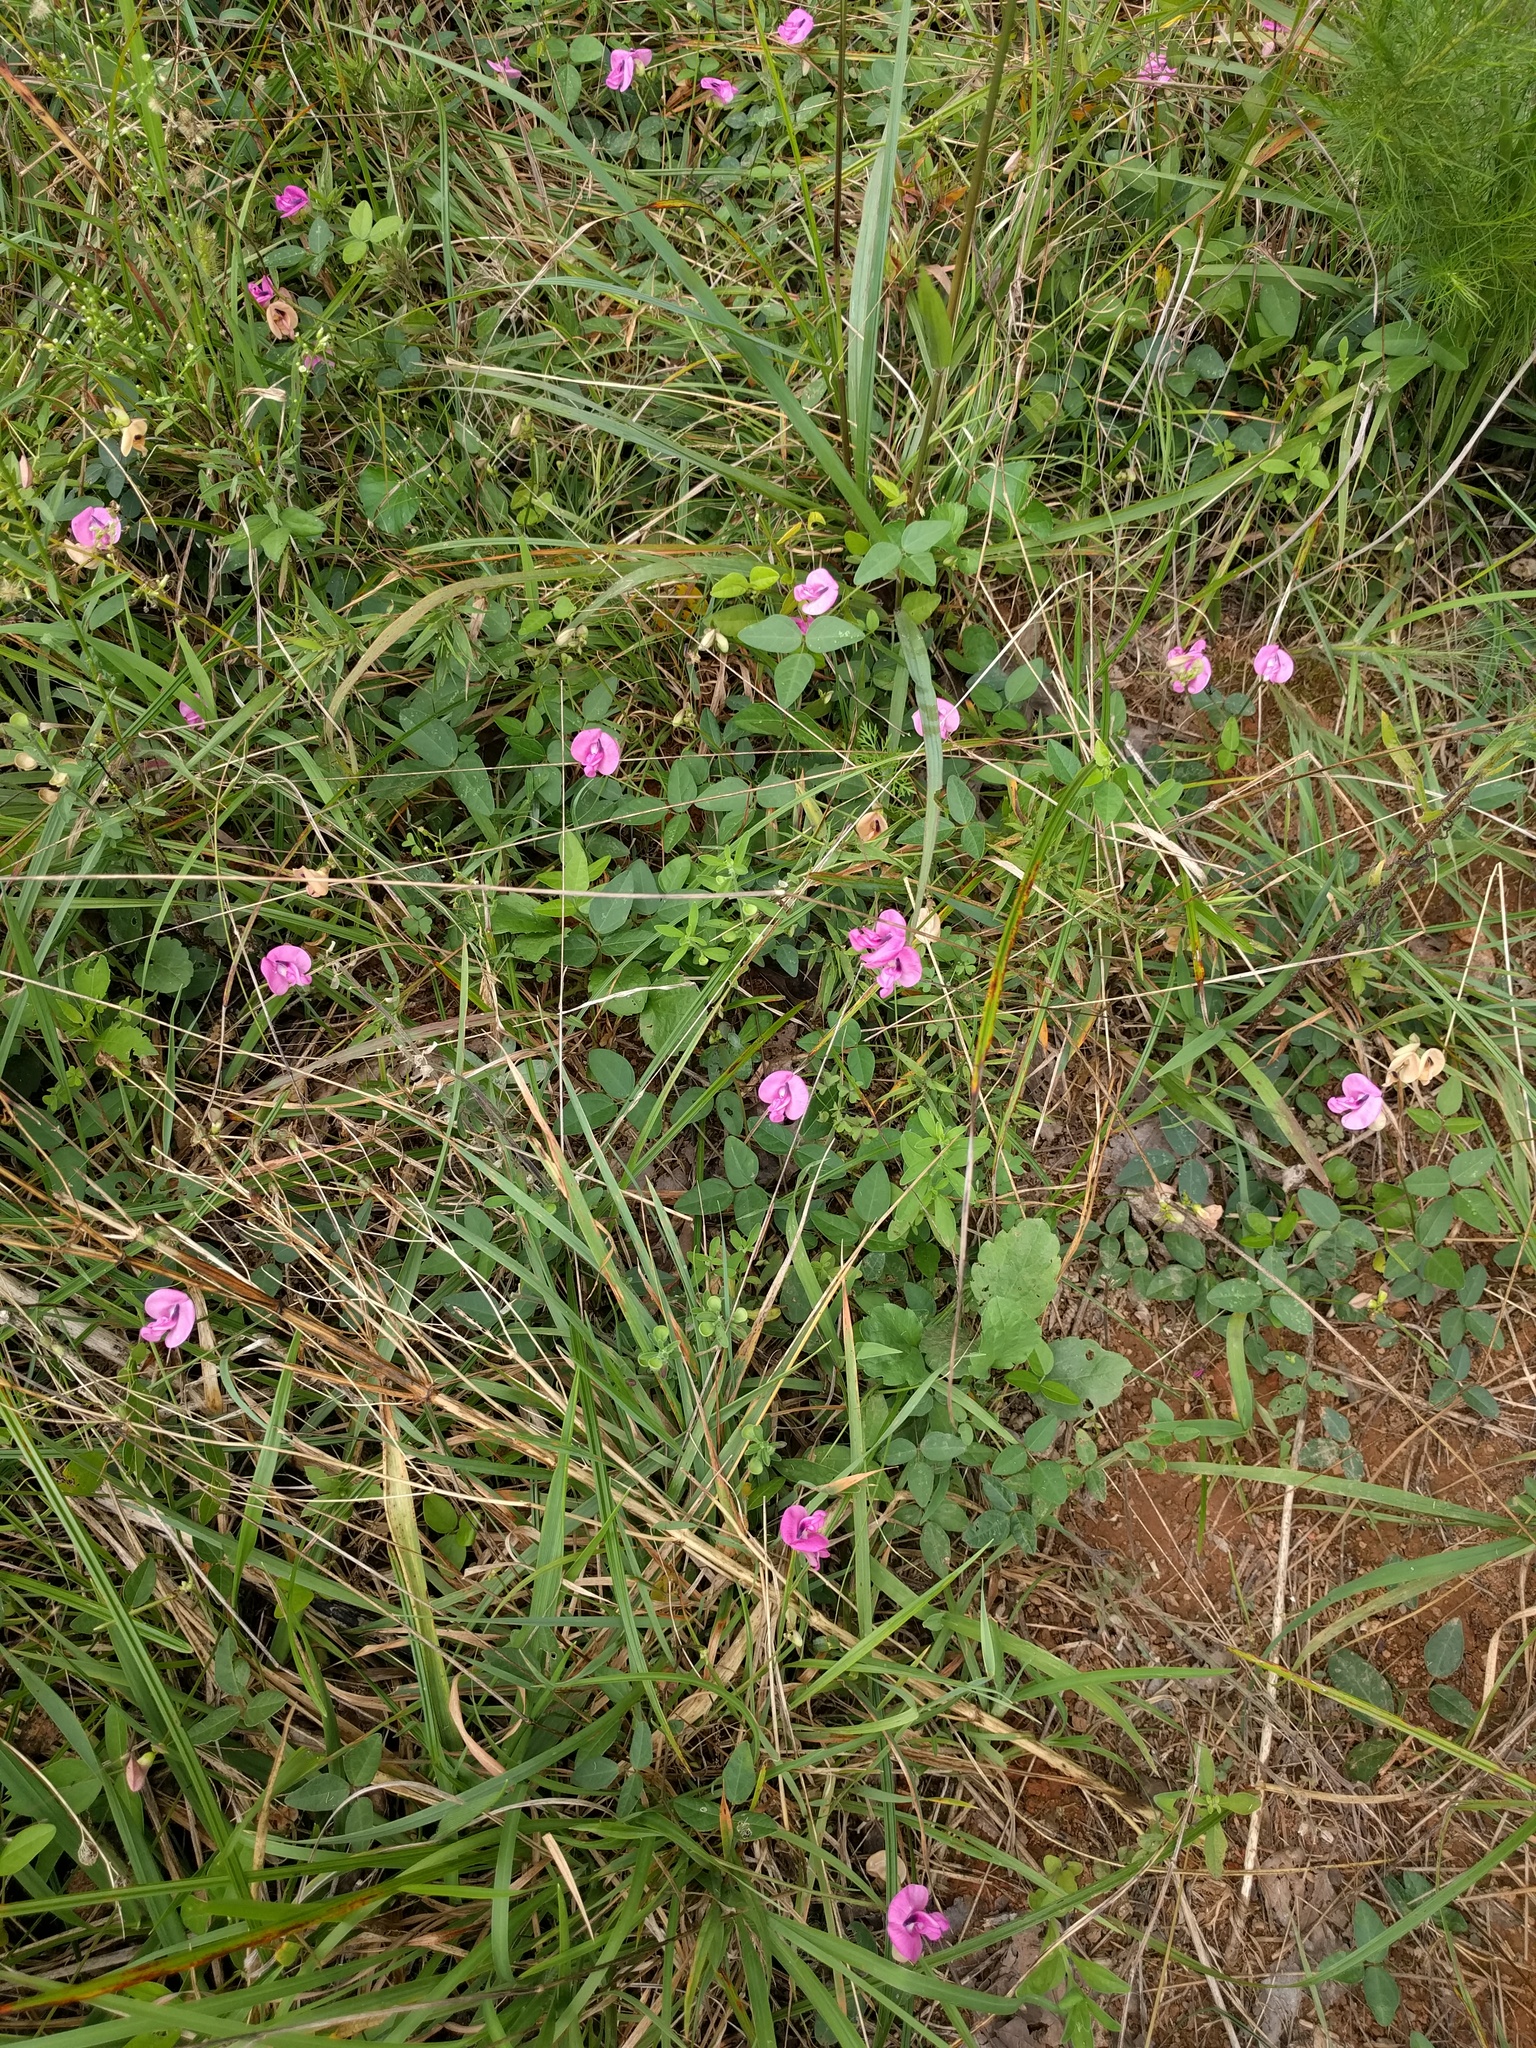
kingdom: Plantae
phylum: Tracheophyta
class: Magnoliopsida
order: Fabales
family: Fabaceae
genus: Strophostyles
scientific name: Strophostyles umbellata
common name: Perennial wild bean
